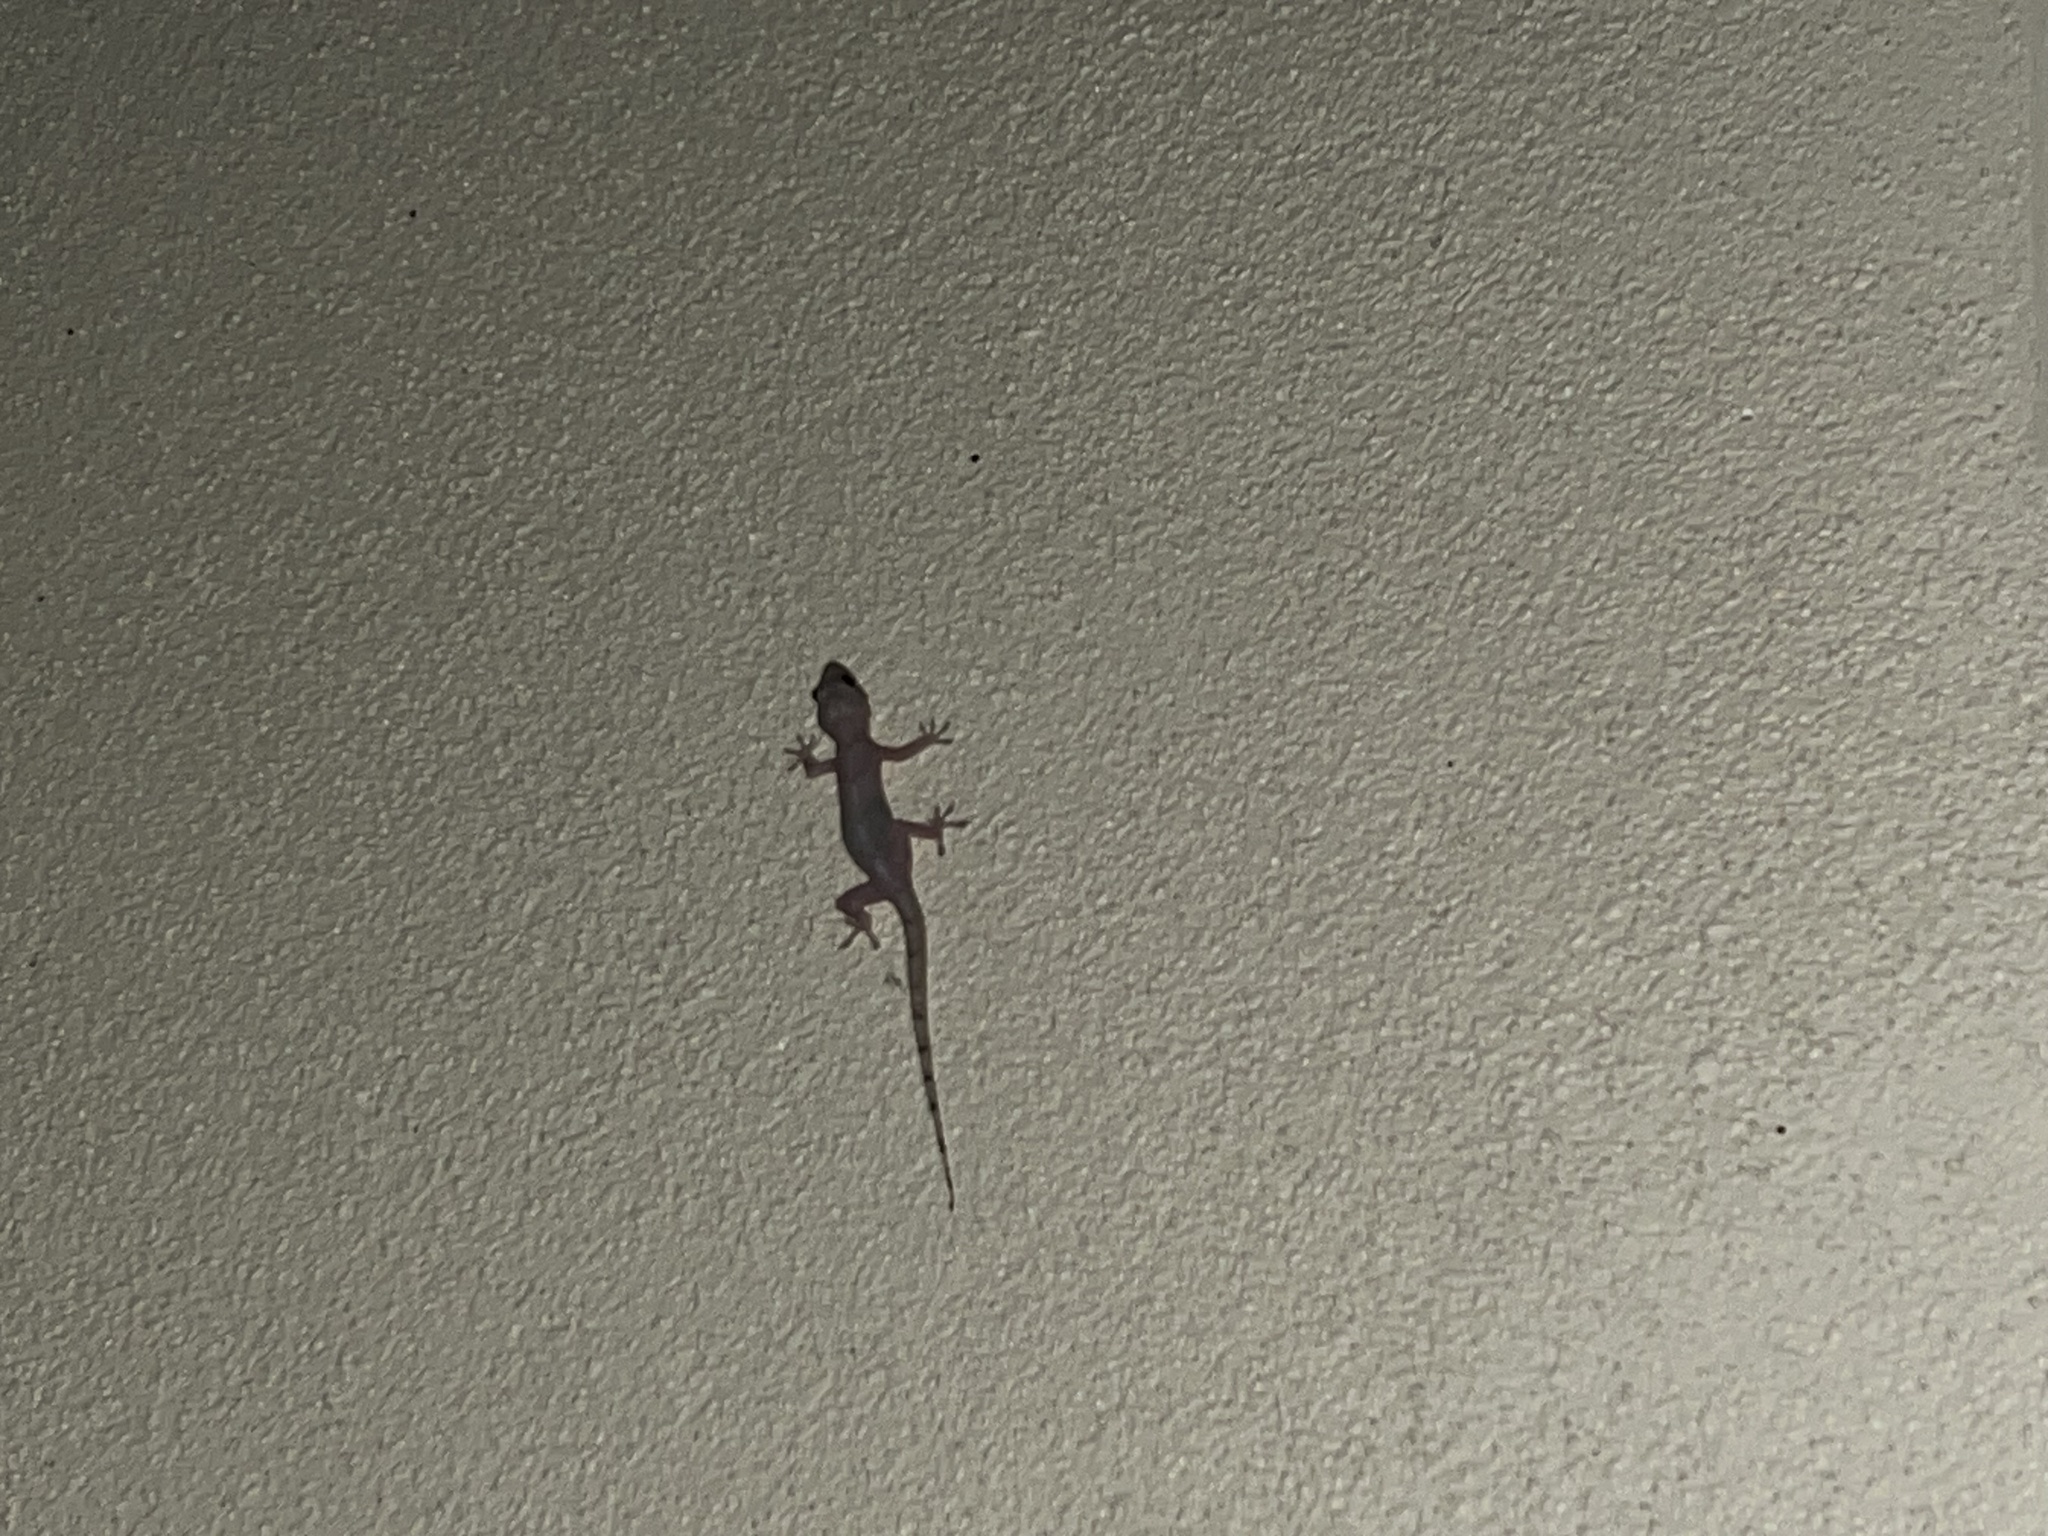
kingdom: Animalia
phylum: Chordata
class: Squamata
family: Gekkonidae
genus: Hemidactylus
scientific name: Hemidactylus mabouia
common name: House gecko
